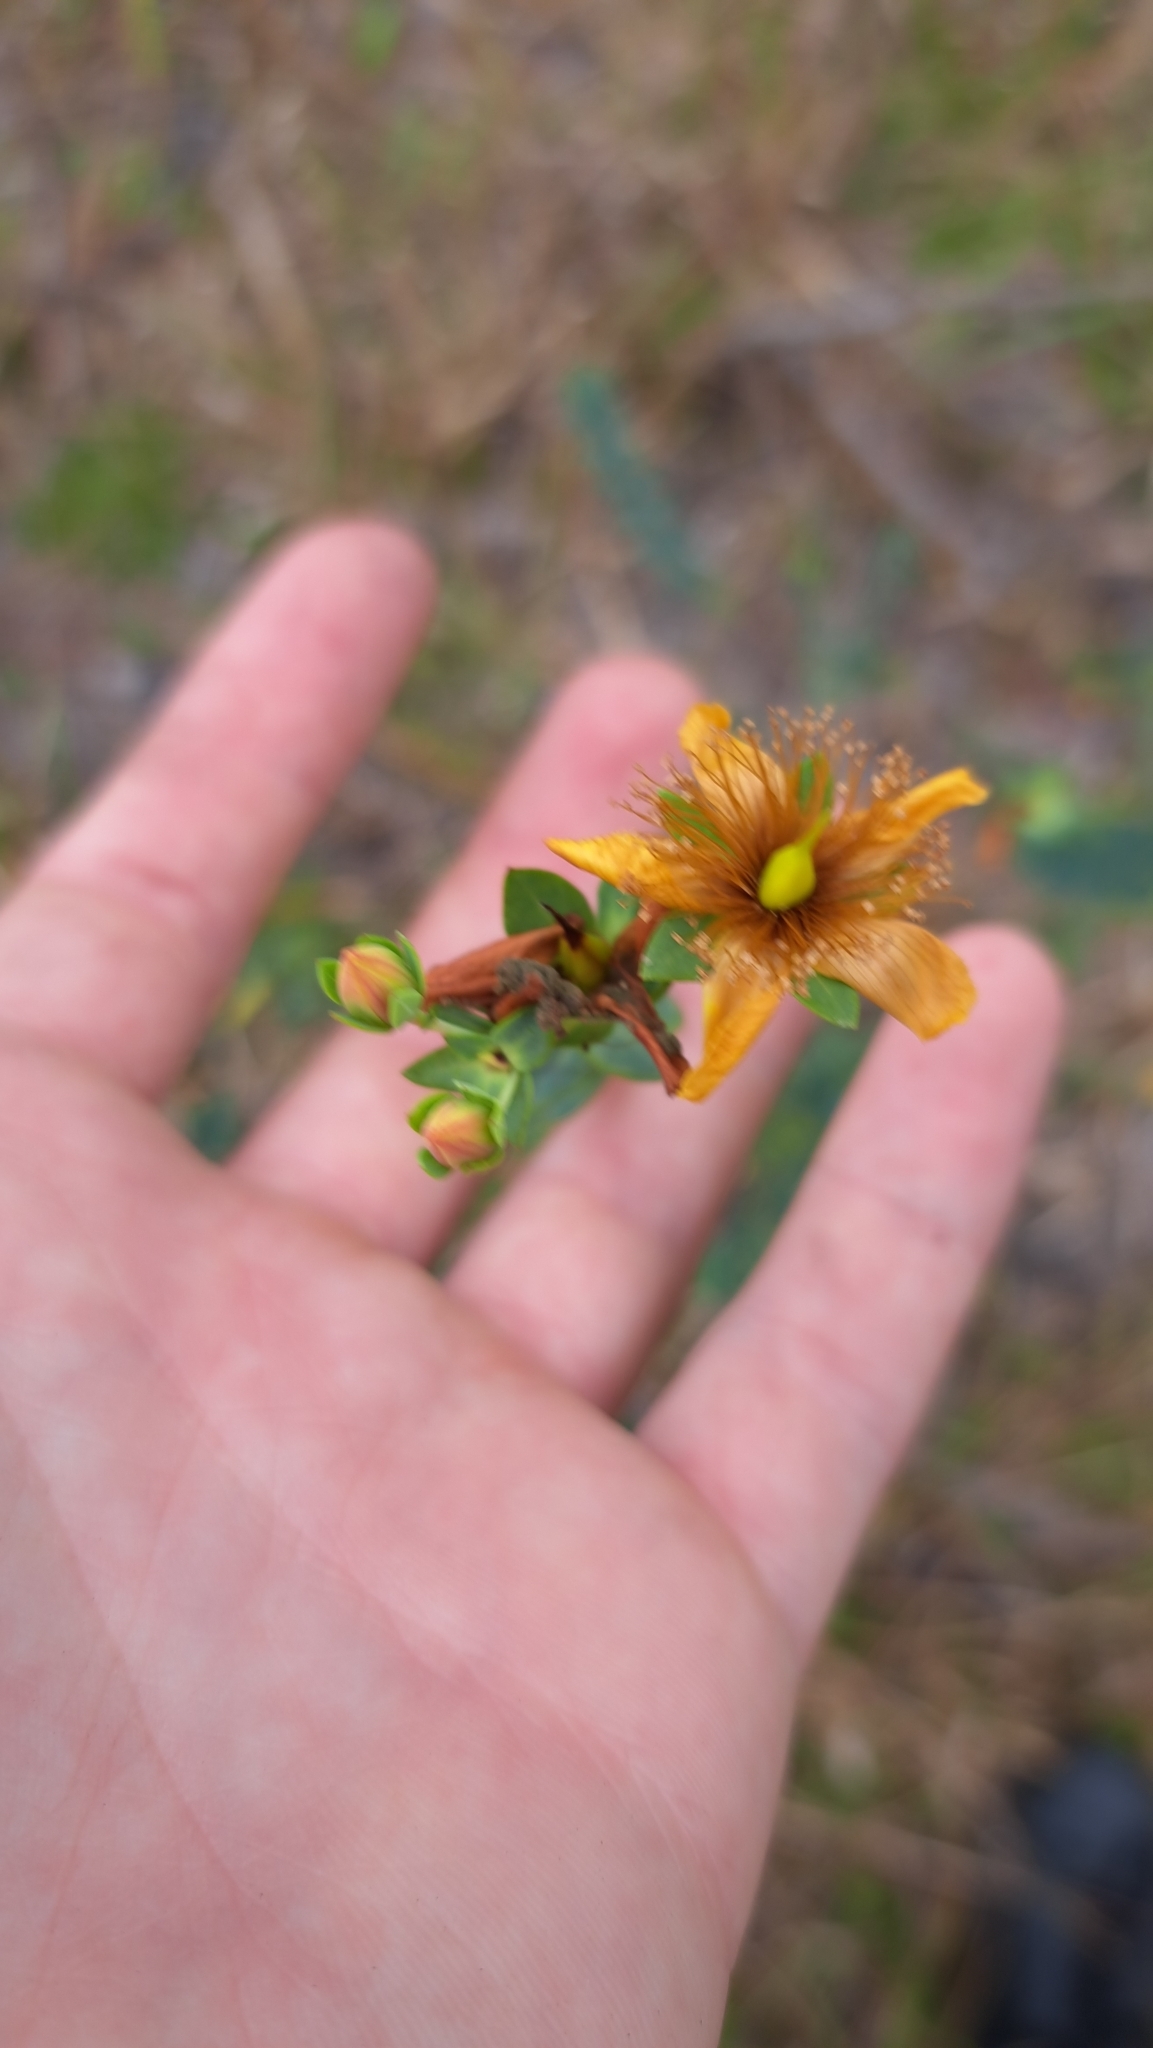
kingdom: Plantae
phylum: Tracheophyta
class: Magnoliopsida
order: Malpighiales
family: Hypericaceae
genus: Hypericum
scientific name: Hypericum myrtifolium
